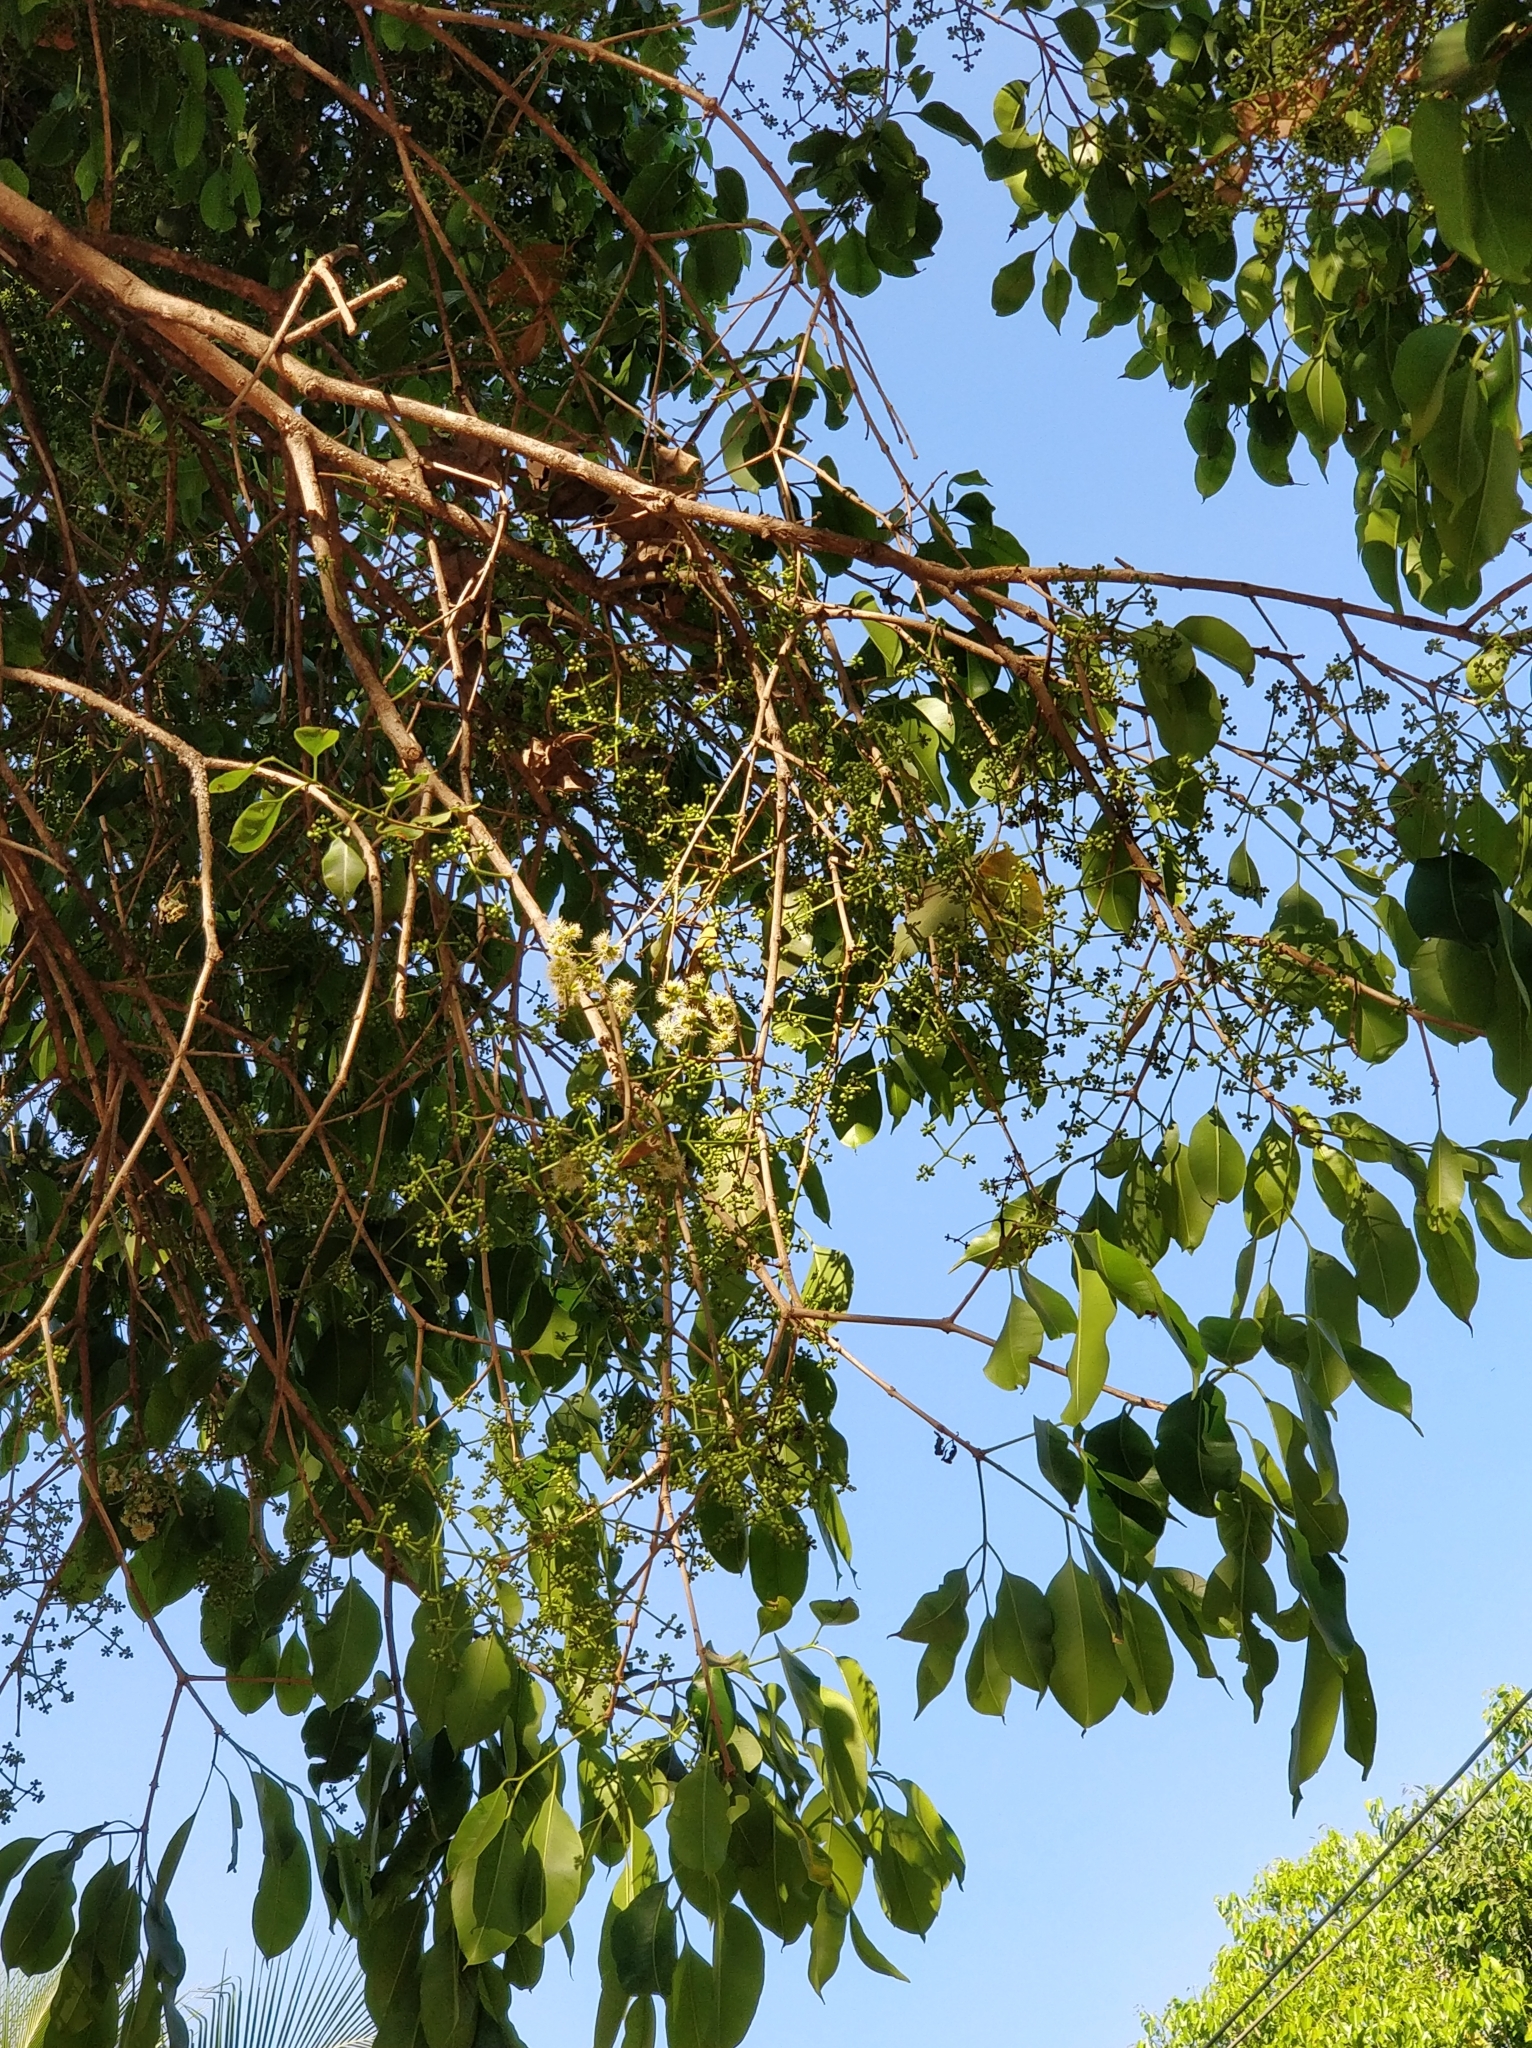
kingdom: Plantae
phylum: Tracheophyta
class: Magnoliopsida
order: Myrtales
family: Myrtaceae
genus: Syzygium
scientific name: Syzygium cumini
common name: Java plum
